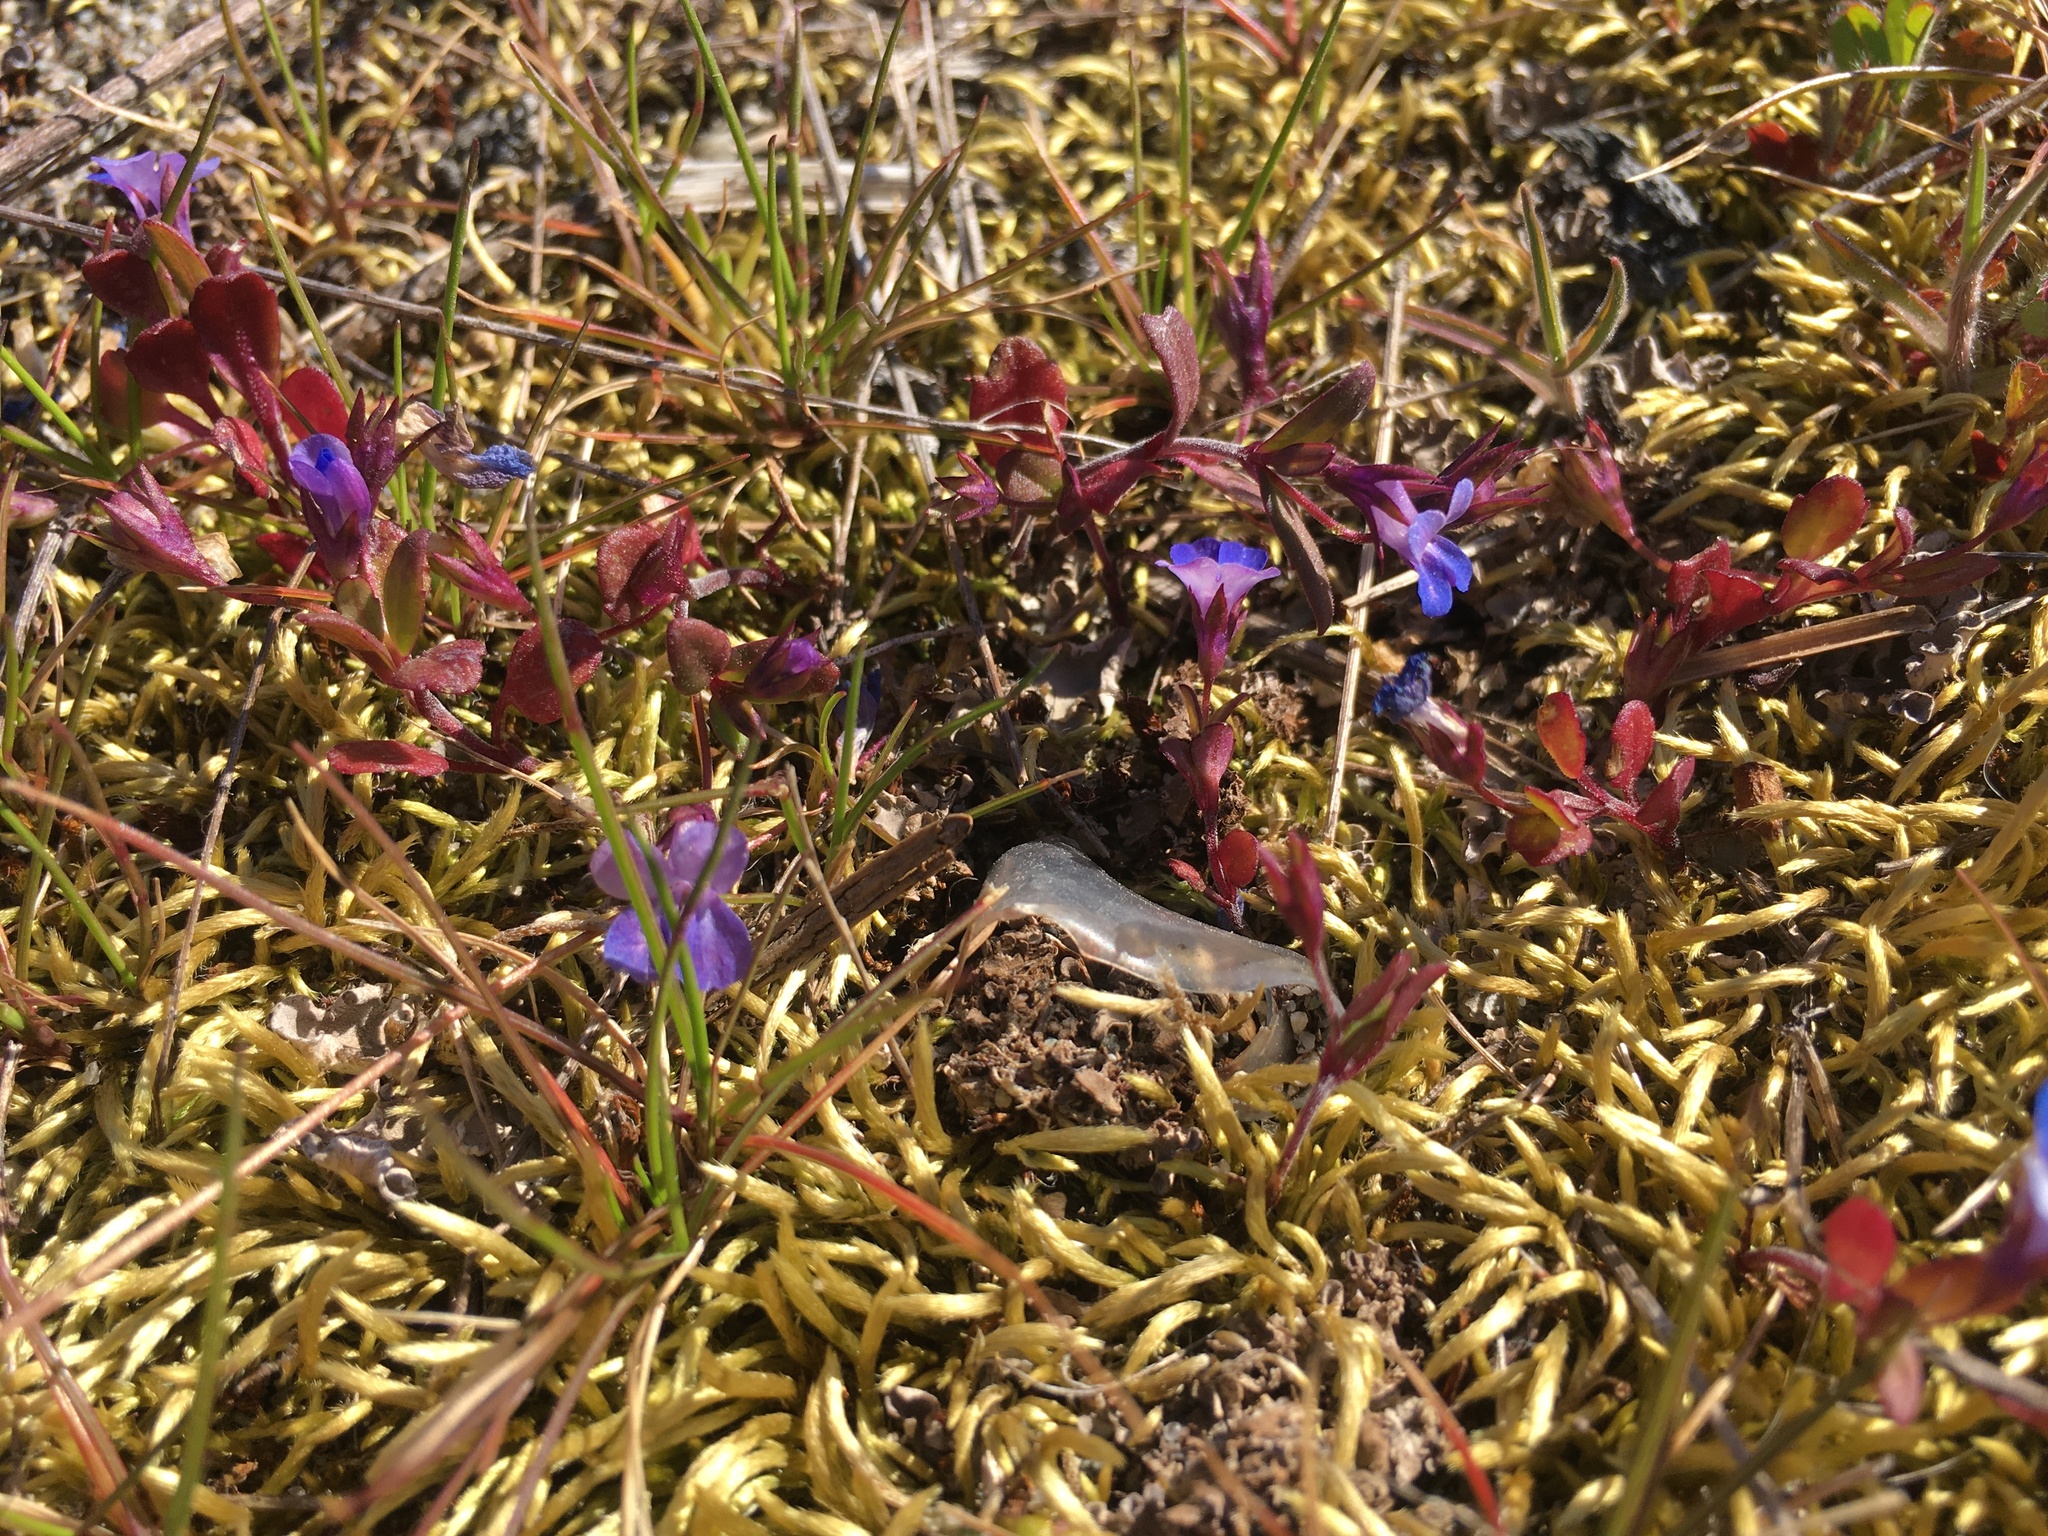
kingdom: Plantae
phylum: Tracheophyta
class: Magnoliopsida
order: Lamiales
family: Plantaginaceae
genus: Collinsia
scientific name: Collinsia parviflora
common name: Blue-lips
